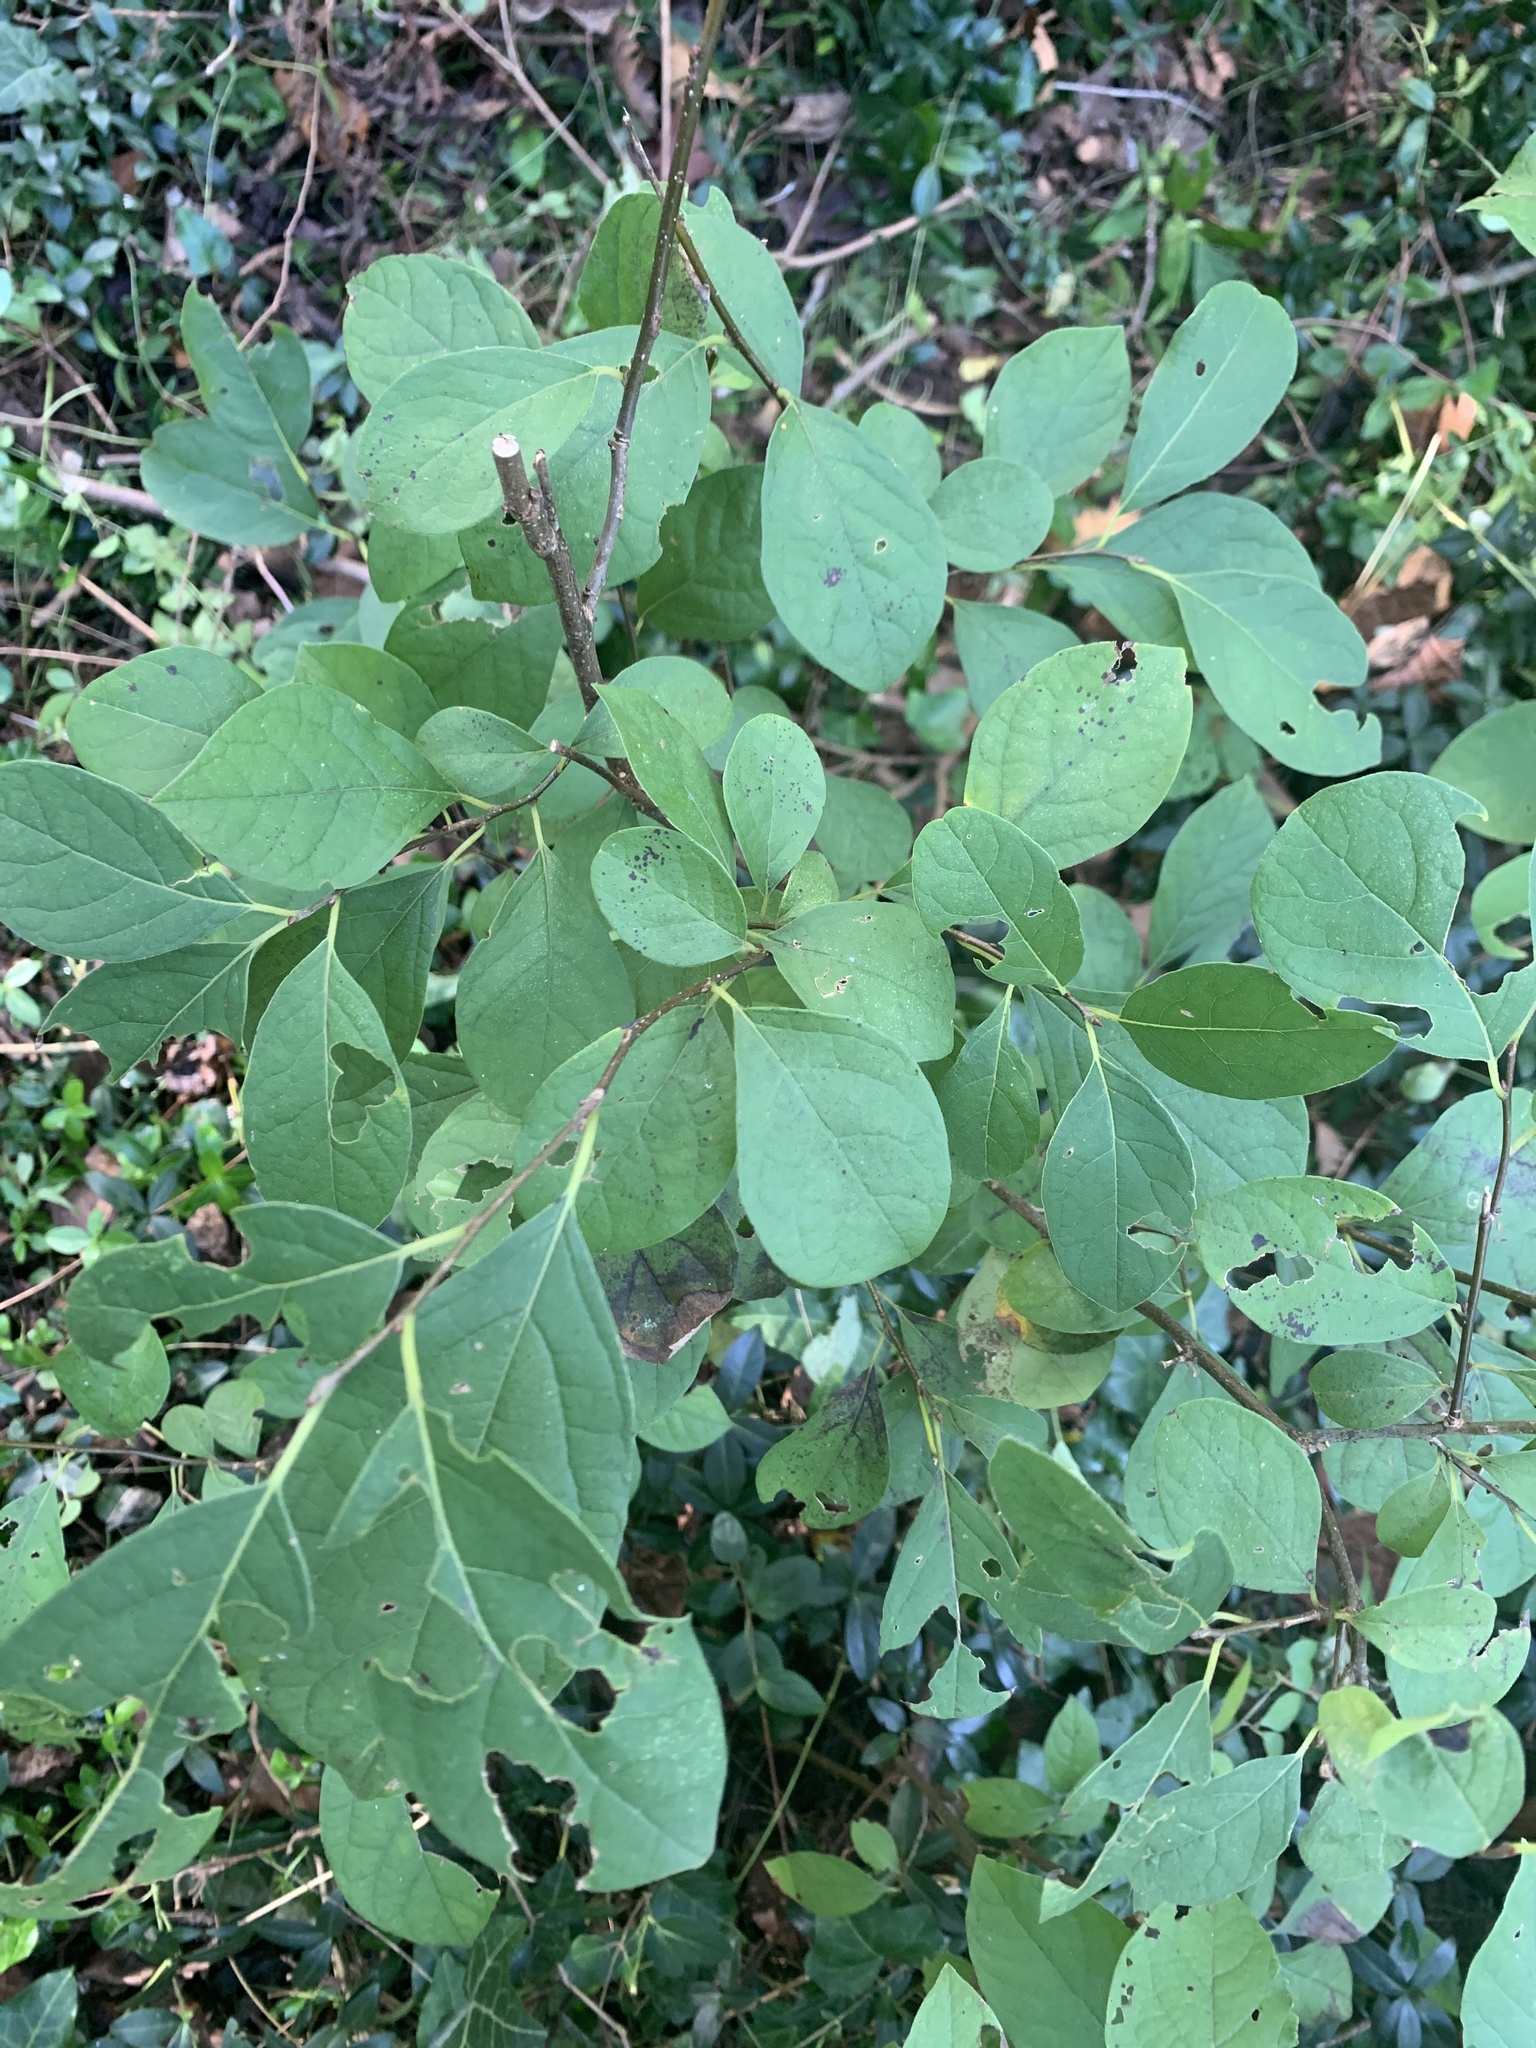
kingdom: Plantae
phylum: Tracheophyta
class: Magnoliopsida
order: Laurales
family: Lauraceae
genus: Lindera
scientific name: Lindera benzoin
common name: Spicebush
